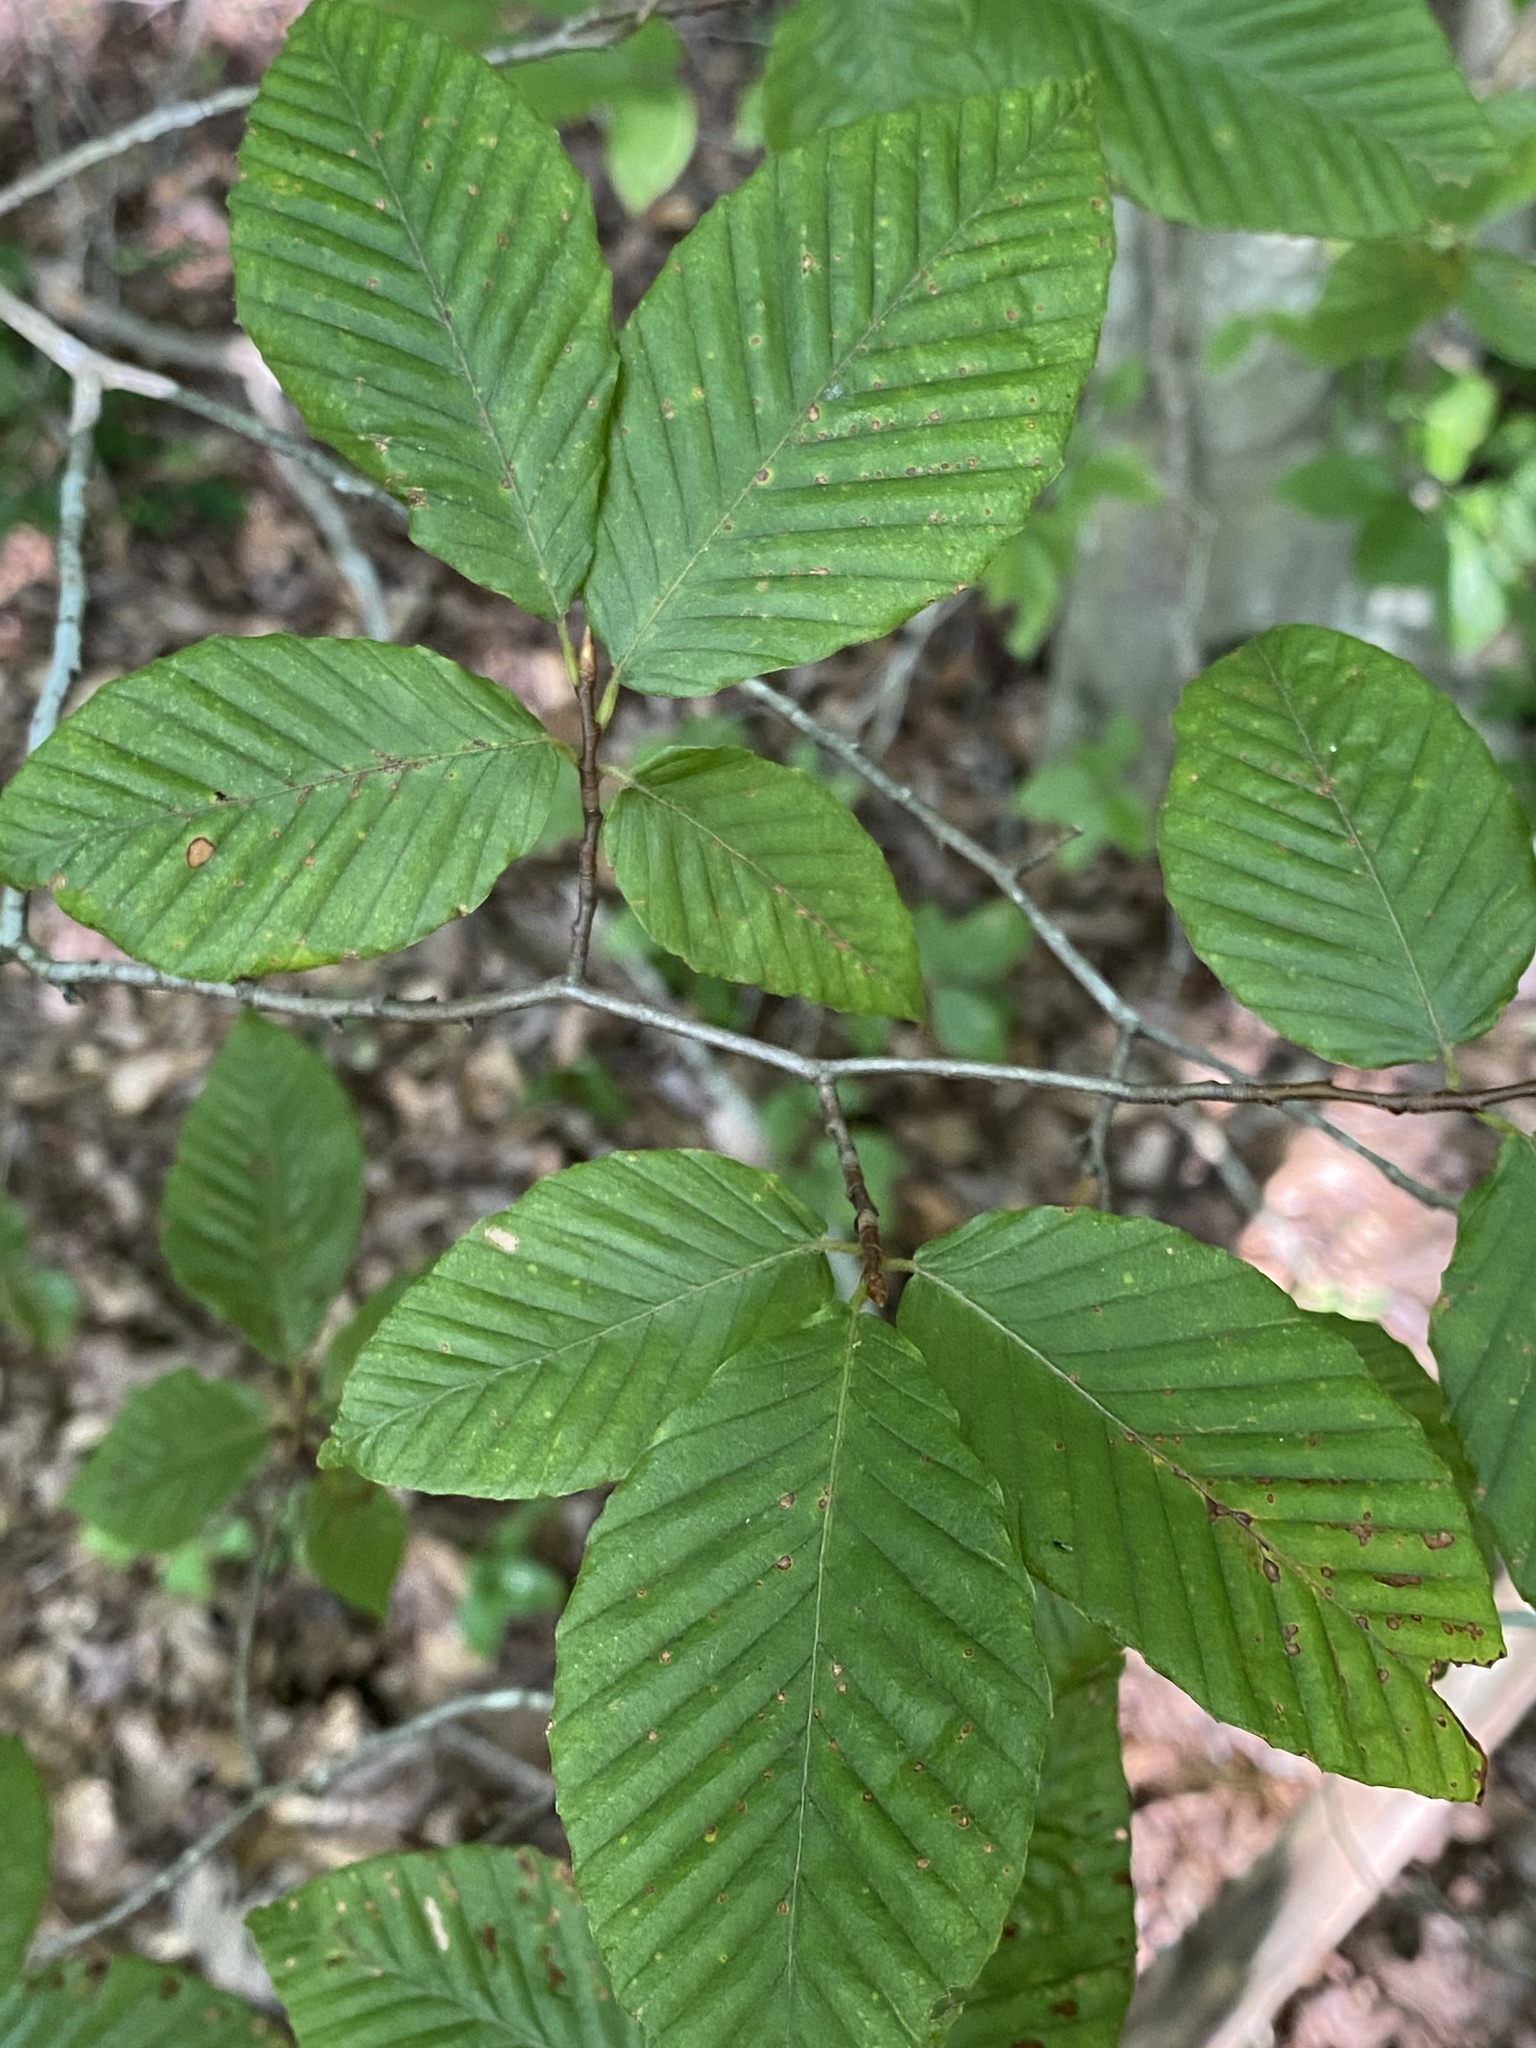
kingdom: Plantae
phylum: Tracheophyta
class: Magnoliopsida
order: Fagales
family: Fagaceae
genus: Fagus
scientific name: Fagus grandifolia
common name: American beech
